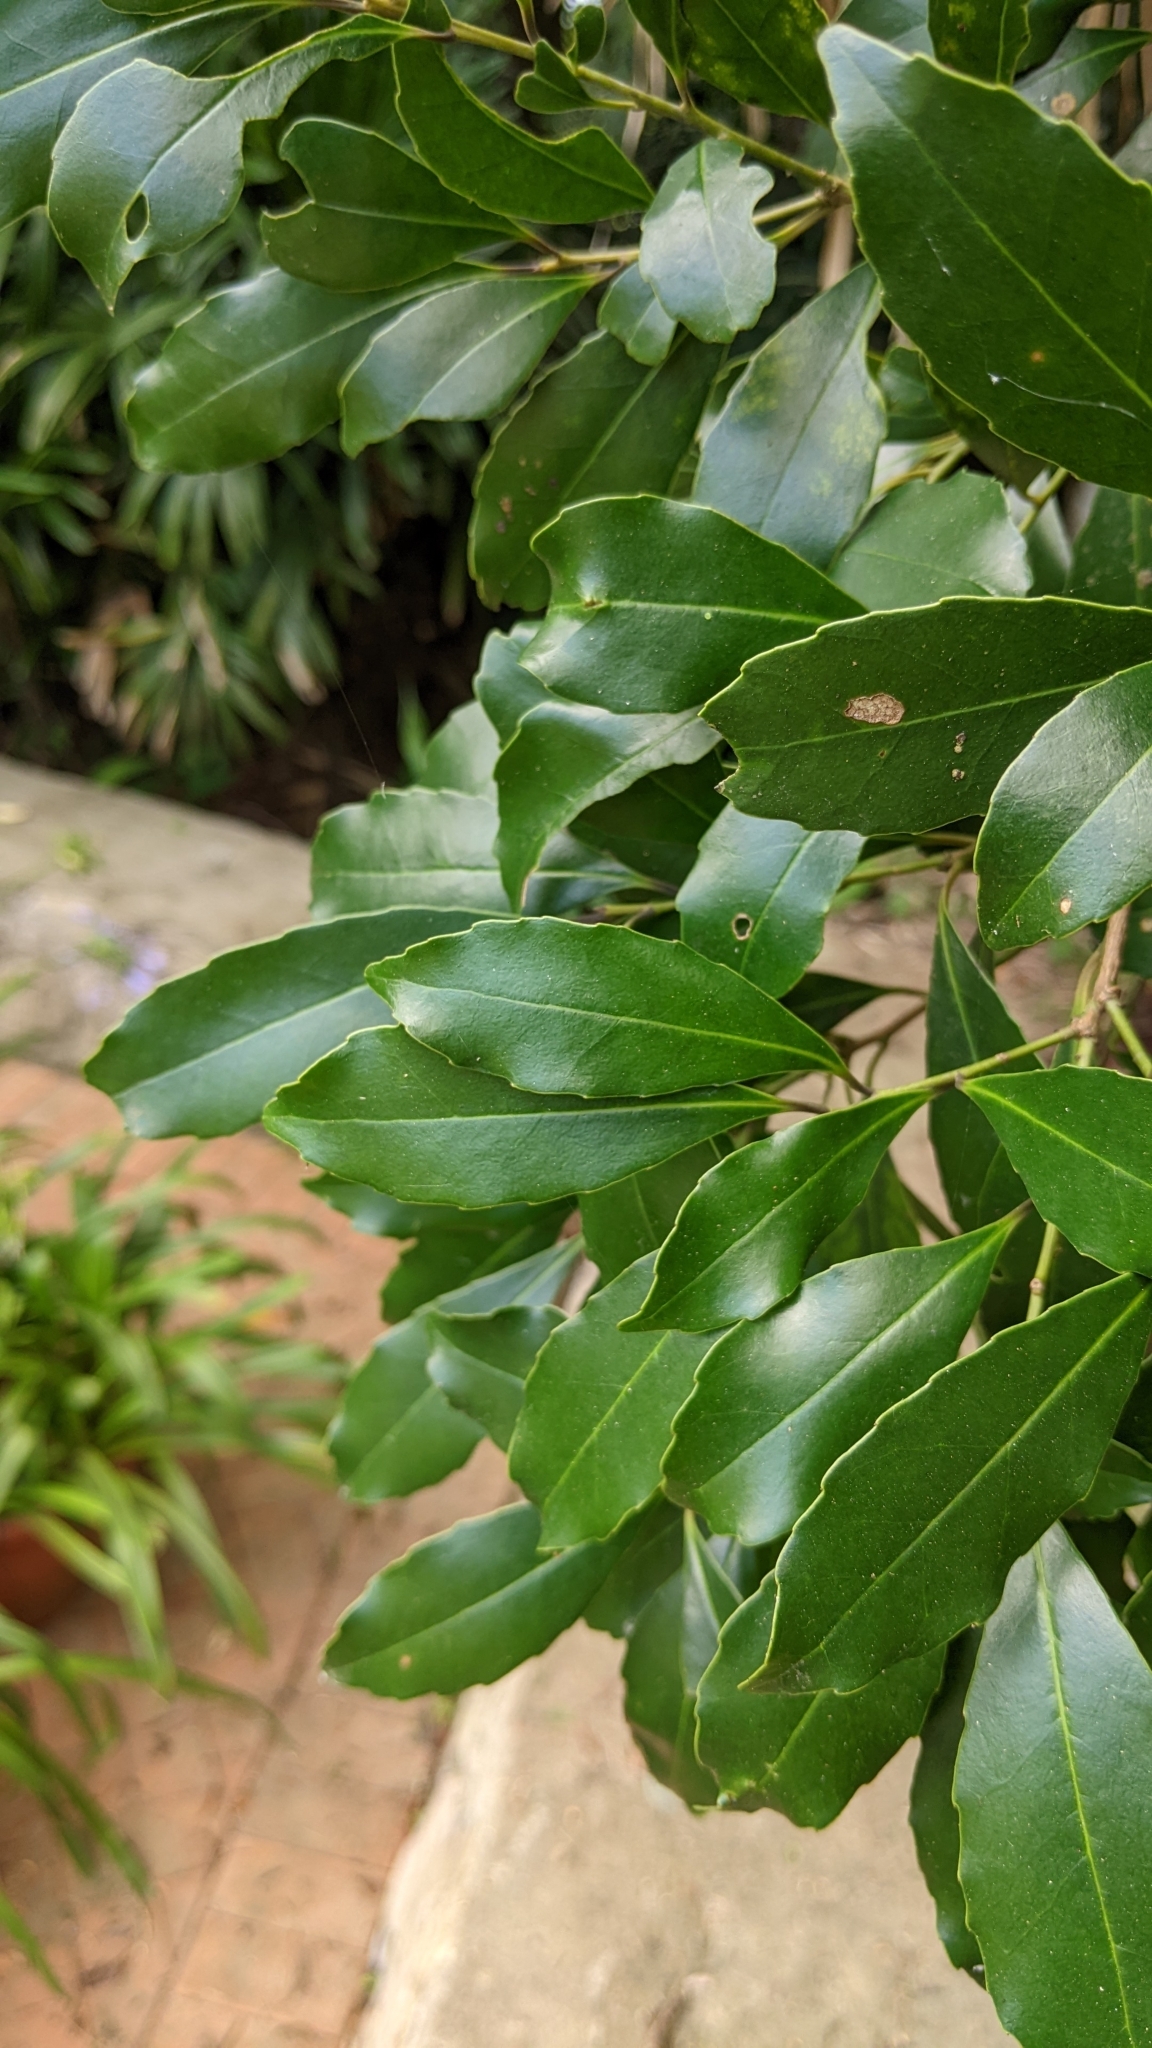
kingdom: Plantae
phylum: Tracheophyta
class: Magnoliopsida
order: Aquifoliales
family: Aquifoliaceae
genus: Ilex
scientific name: Ilex uraiensis
